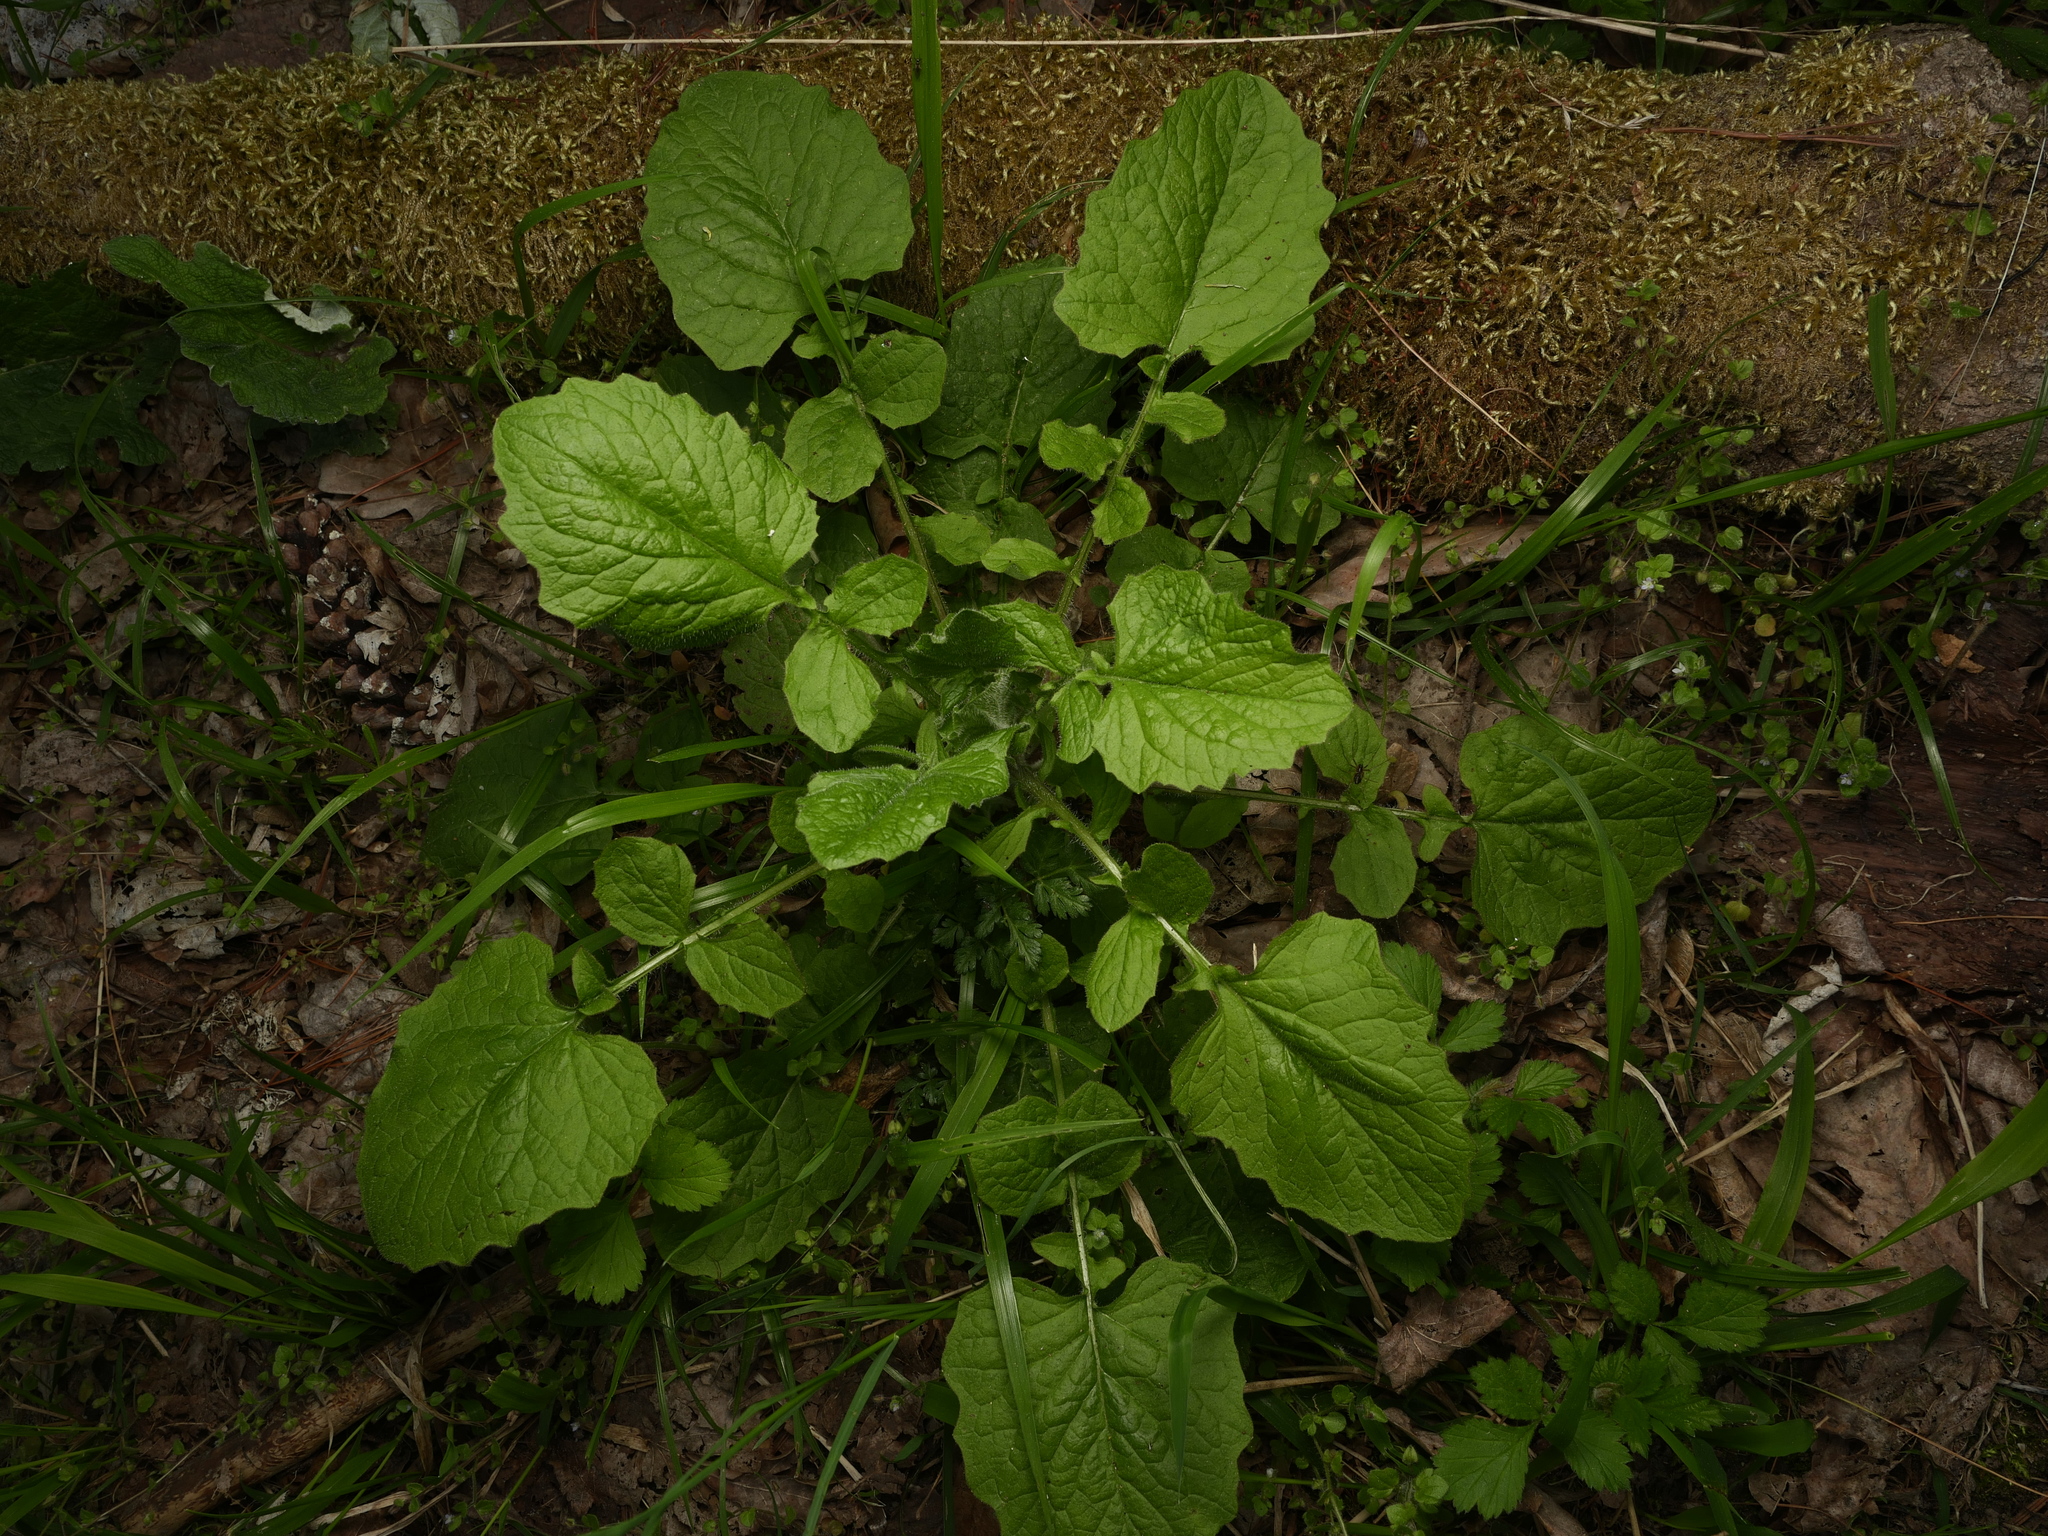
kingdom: Plantae
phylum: Tracheophyta
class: Magnoliopsida
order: Asterales
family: Asteraceae
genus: Lapsana
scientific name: Lapsana communis
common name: Nipplewort
